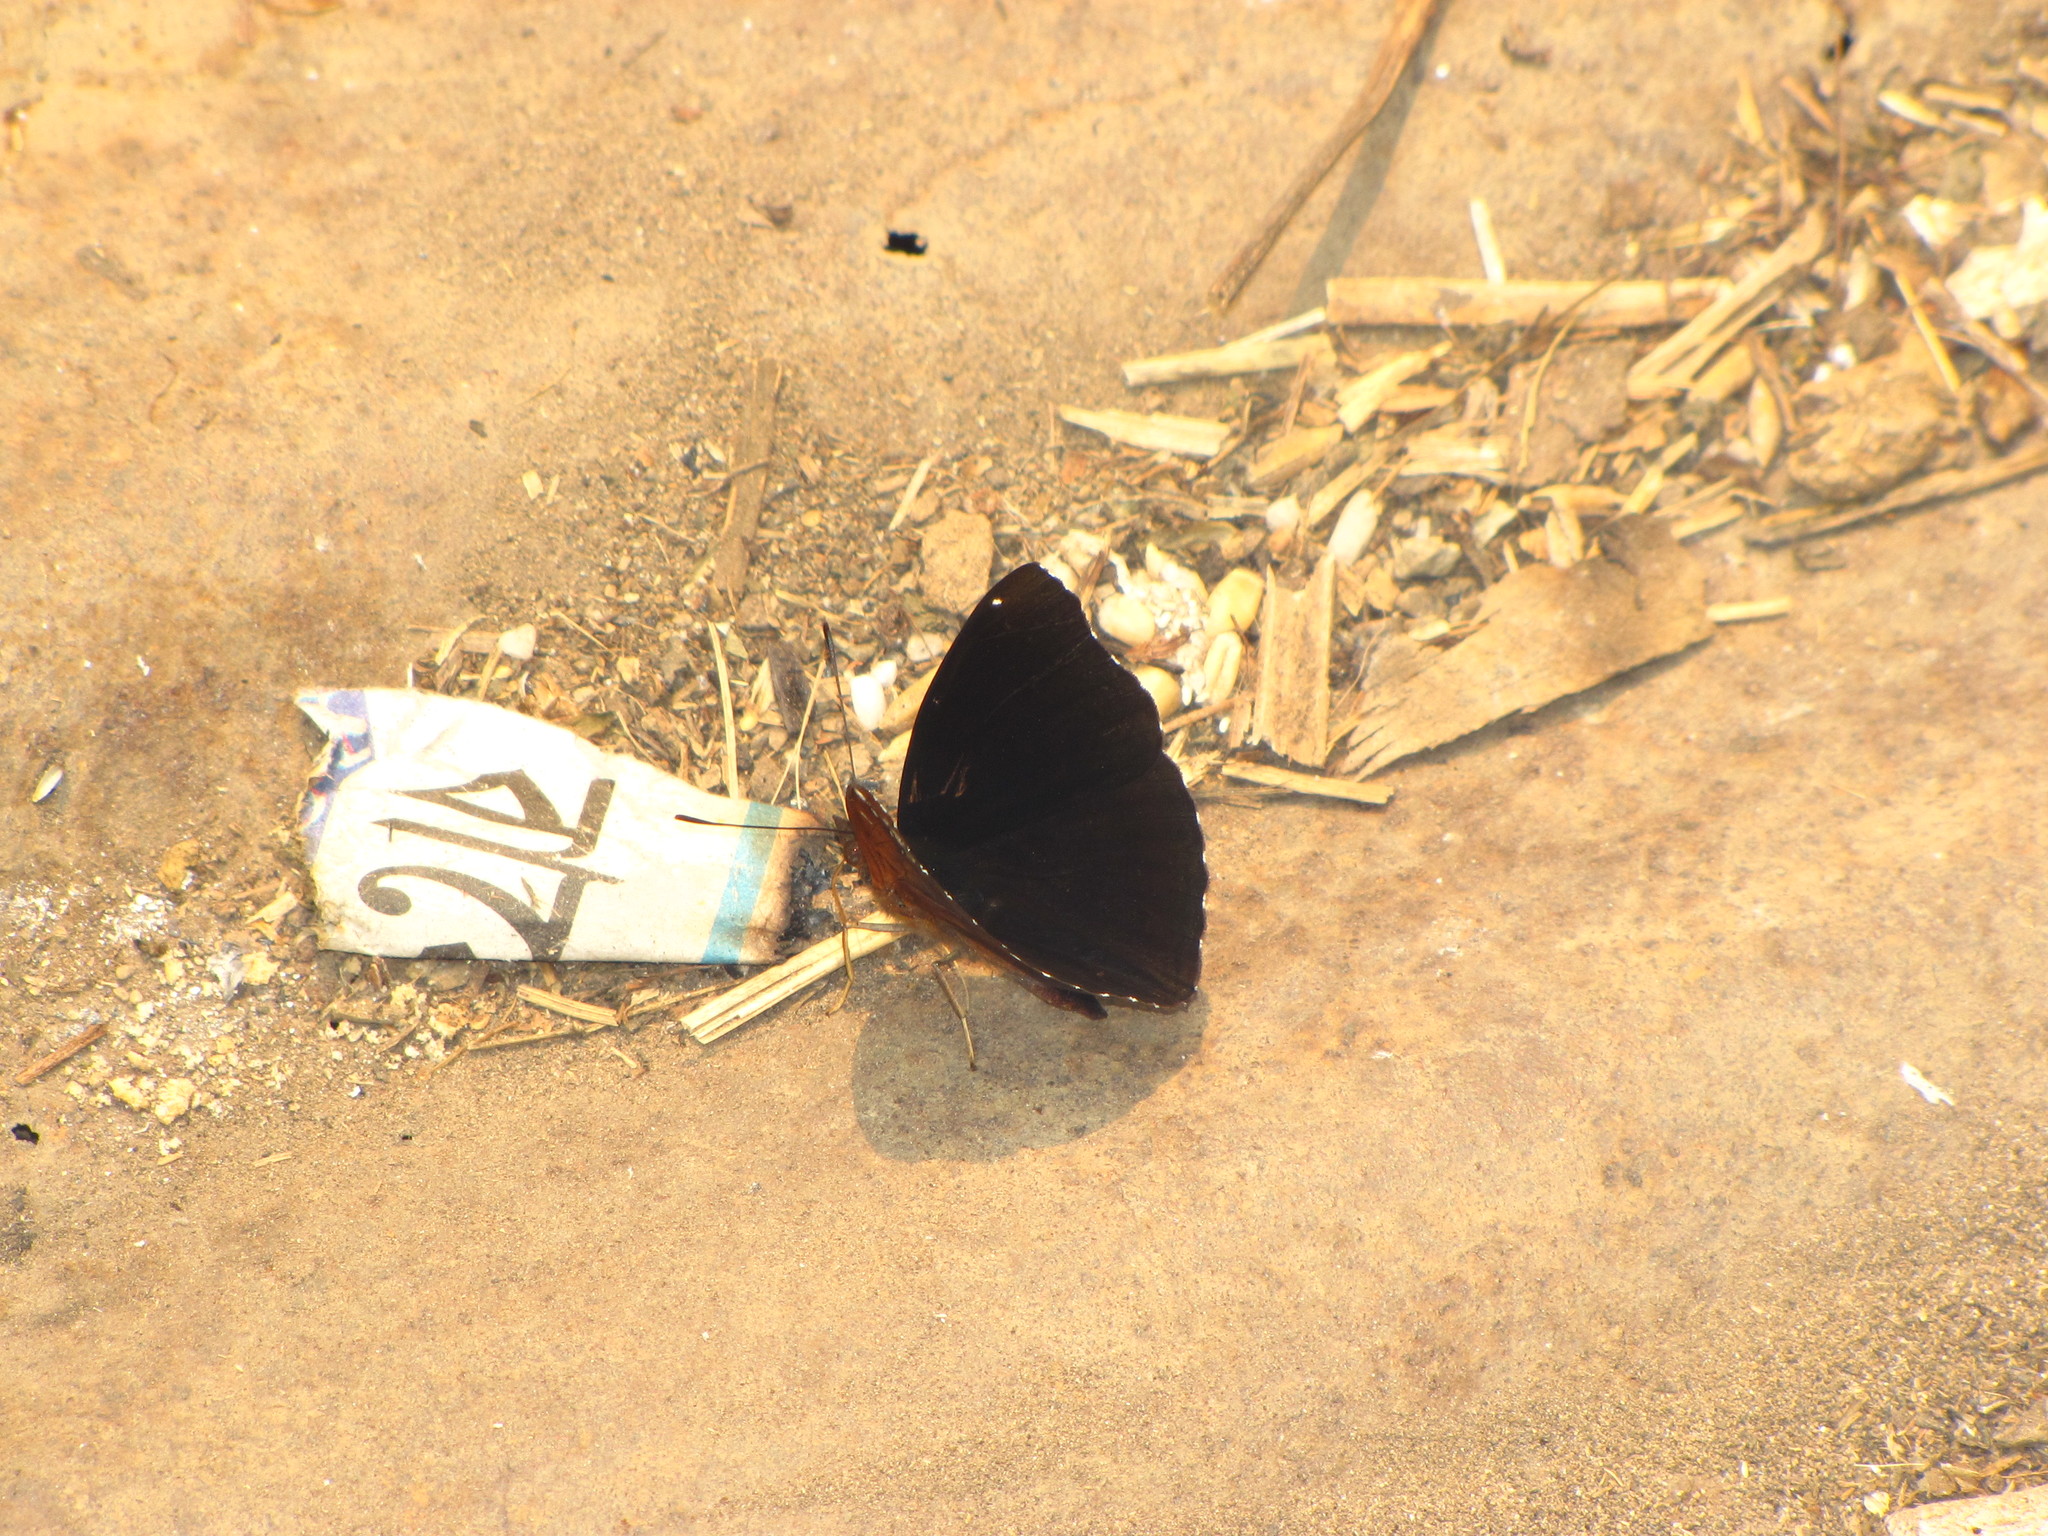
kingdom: Animalia
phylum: Arthropoda
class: Insecta
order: Lepidoptera
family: Nymphalidae
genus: Apatura
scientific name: Apatura Rohana spec
